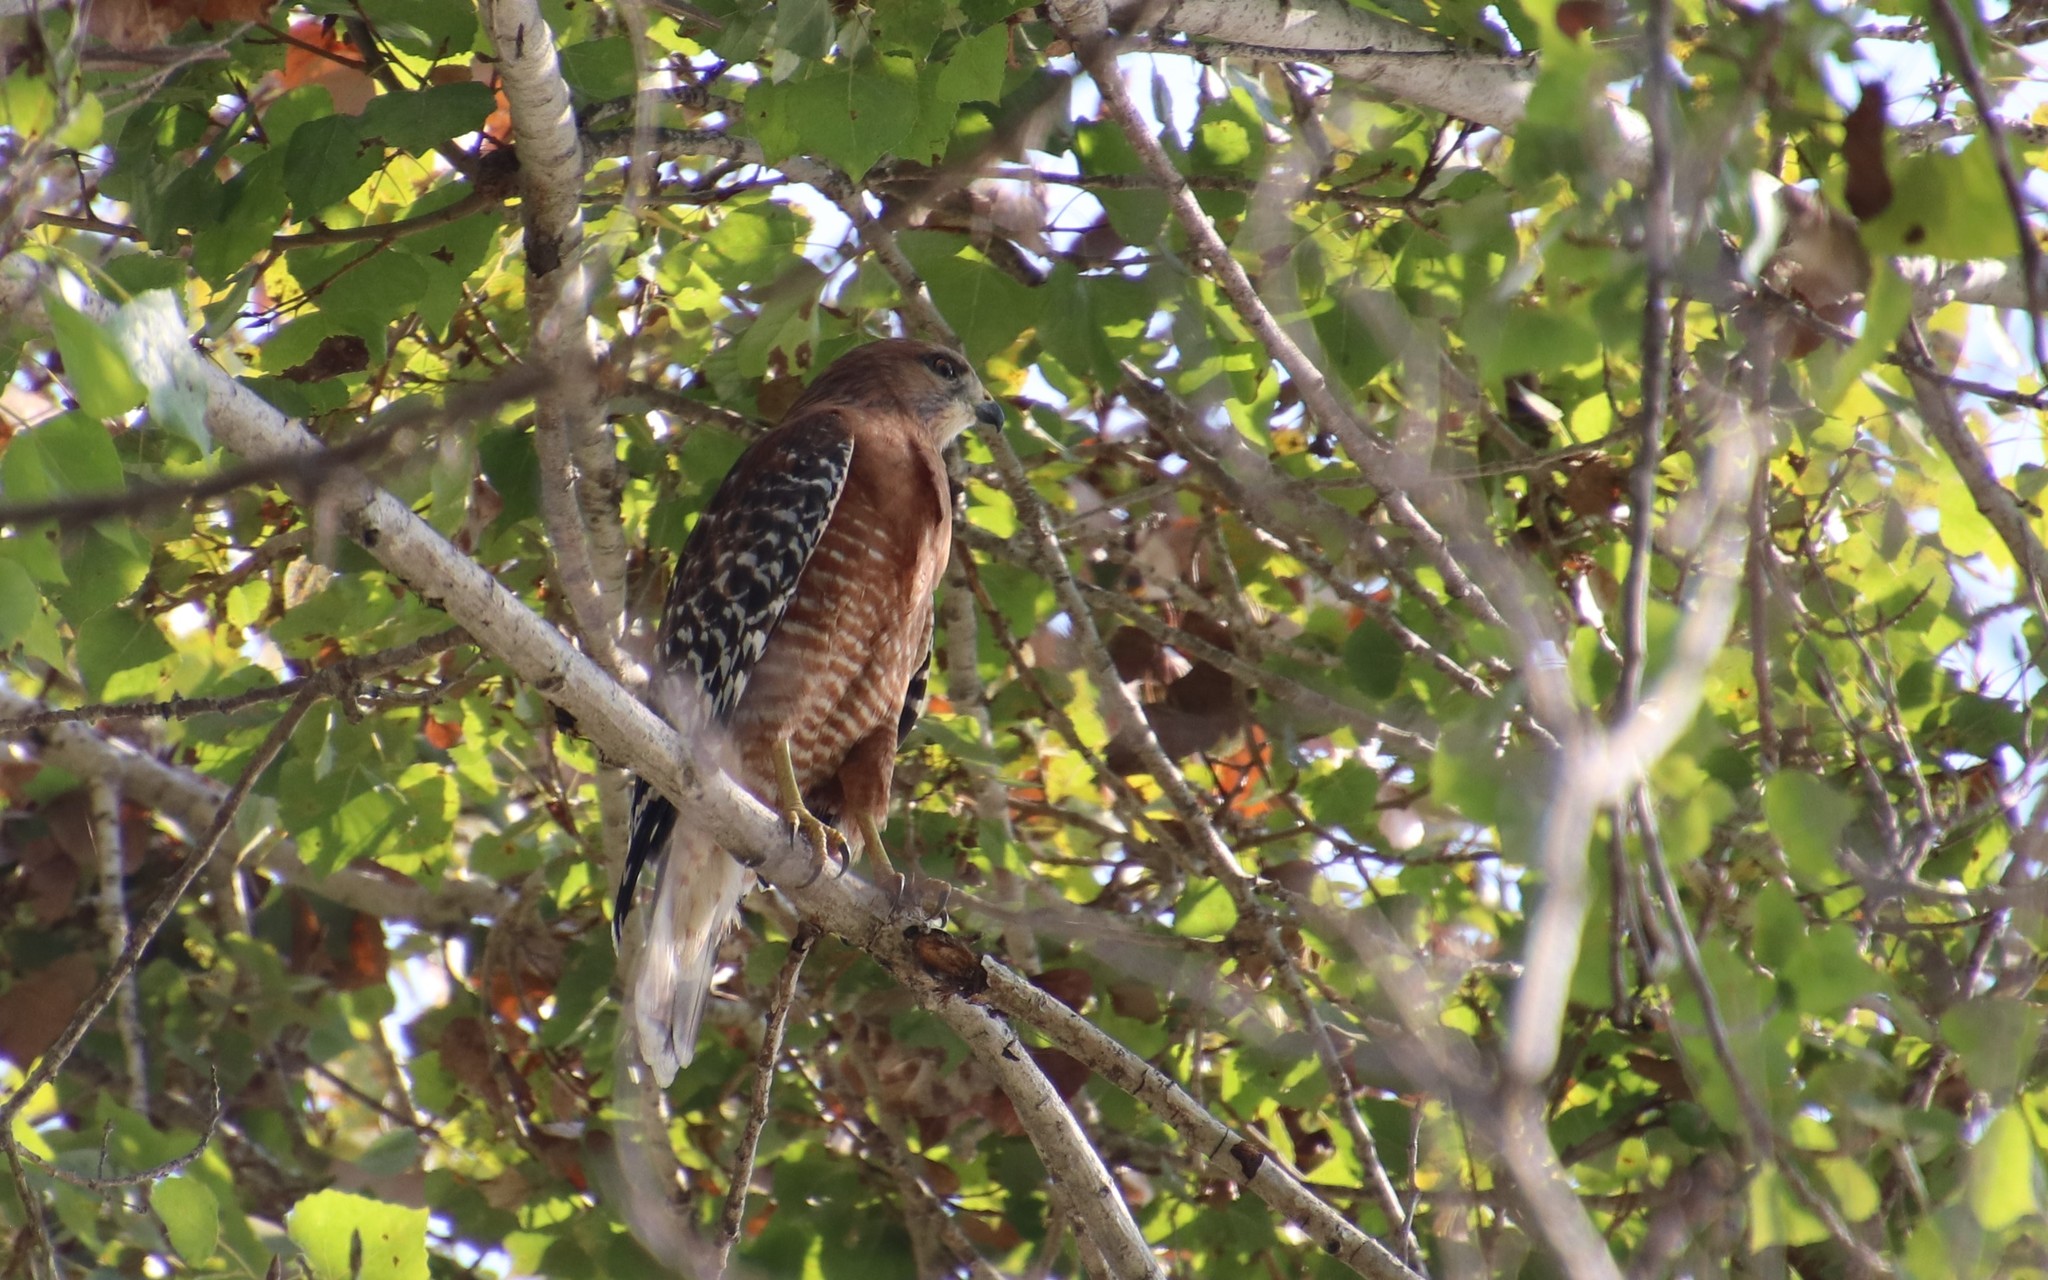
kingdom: Animalia
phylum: Chordata
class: Aves
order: Accipitriformes
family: Accipitridae
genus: Buteo
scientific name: Buteo lineatus
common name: Red-shouldered hawk
